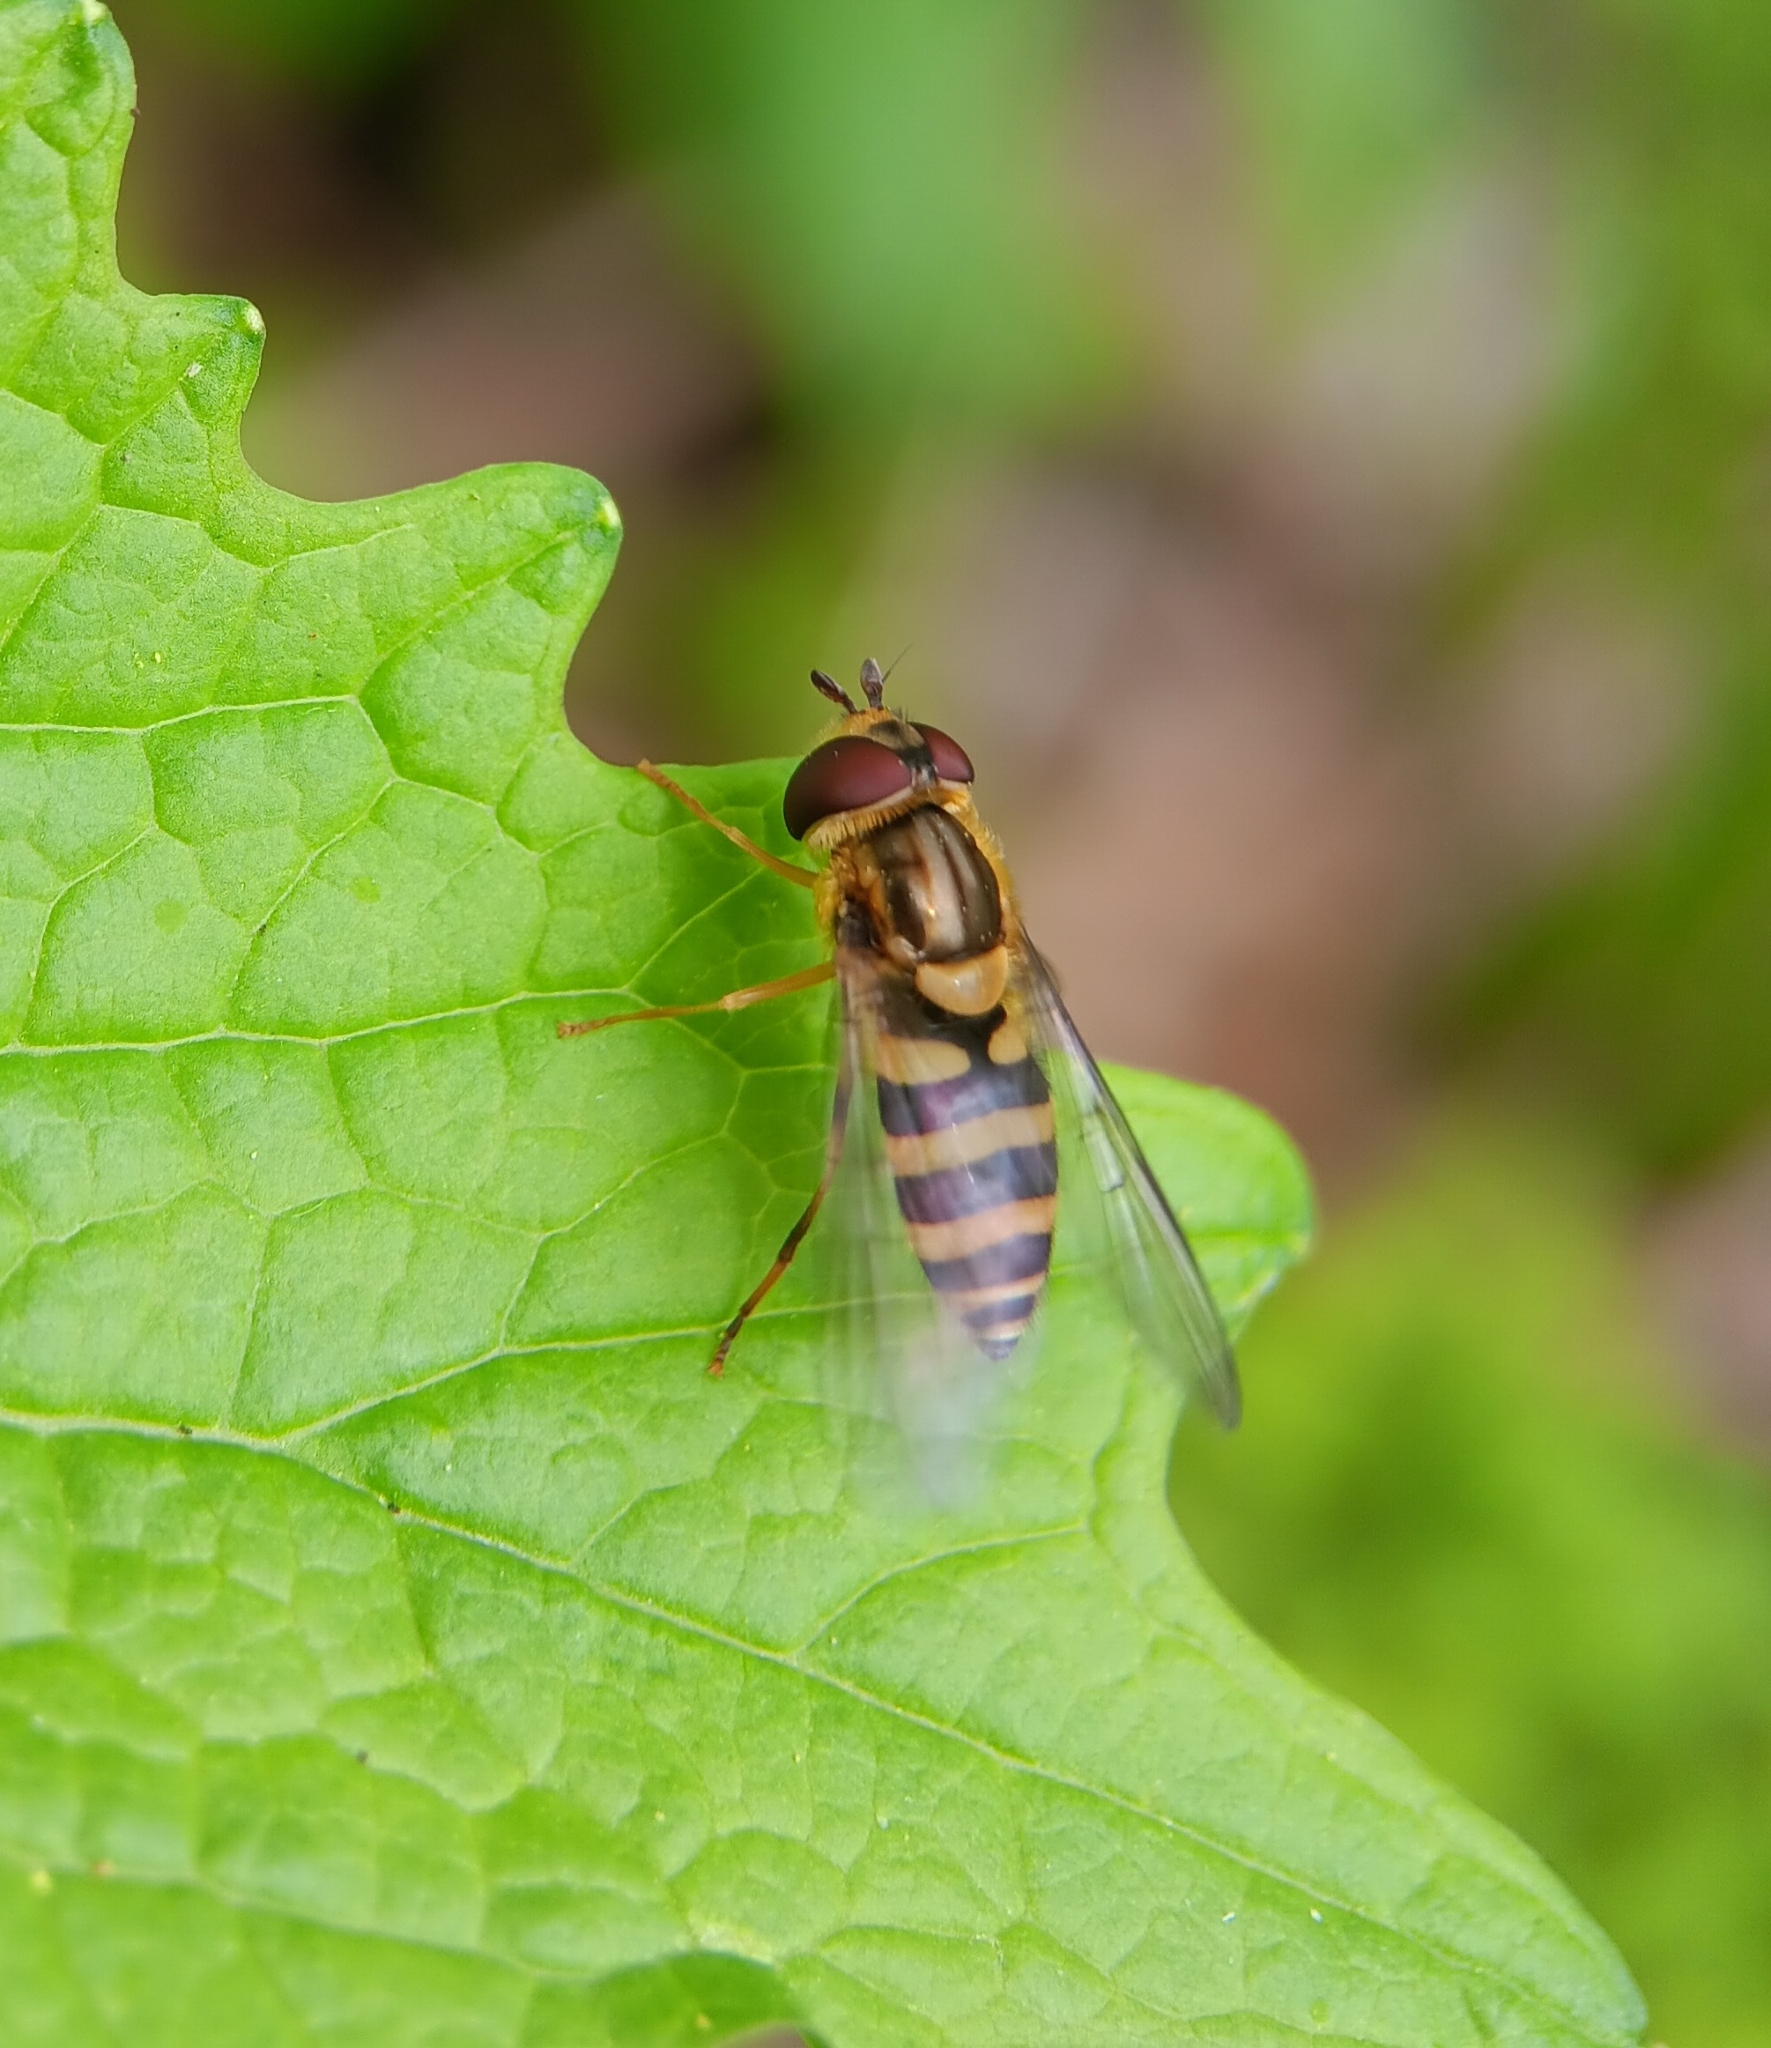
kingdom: Animalia
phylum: Arthropoda
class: Insecta
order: Diptera
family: Syrphidae
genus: Syrphus
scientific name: Syrphus knabi
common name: Eastern flower fly
